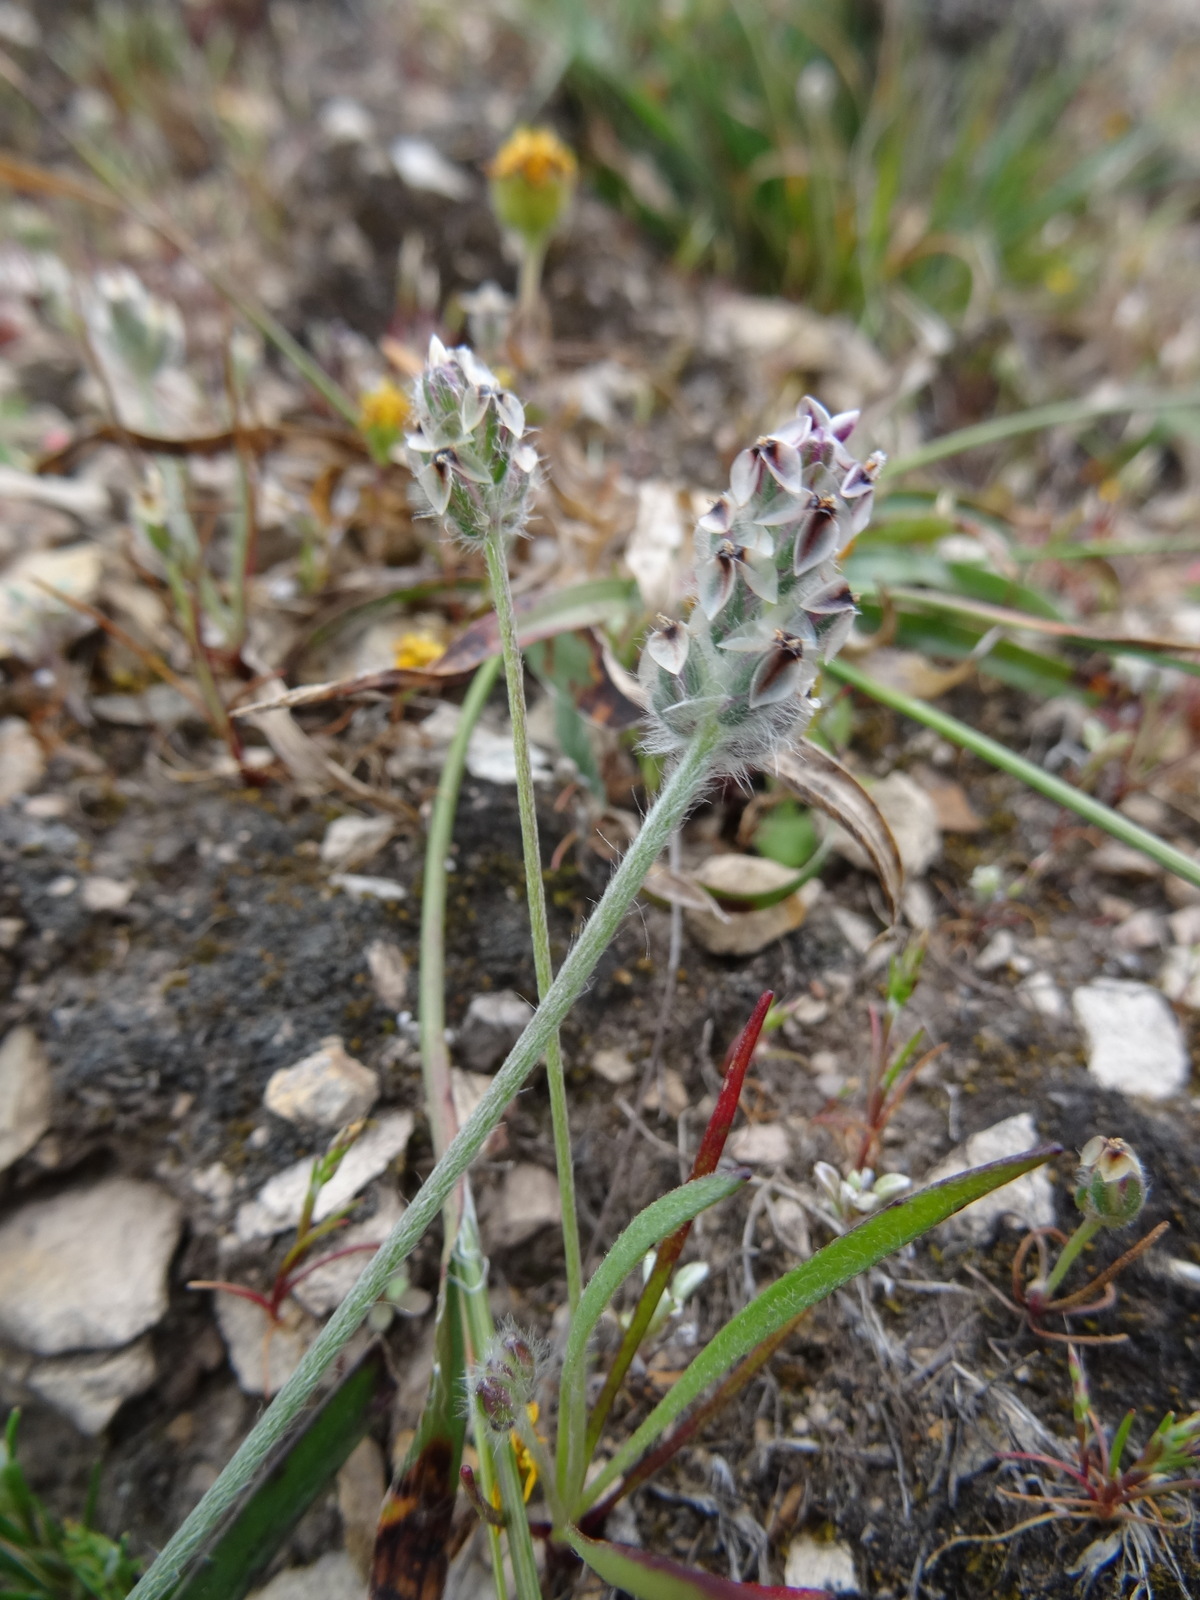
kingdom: Plantae
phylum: Tracheophyta
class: Magnoliopsida
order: Lamiales
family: Plantaginaceae
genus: Plantago
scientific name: Plantago erecta
